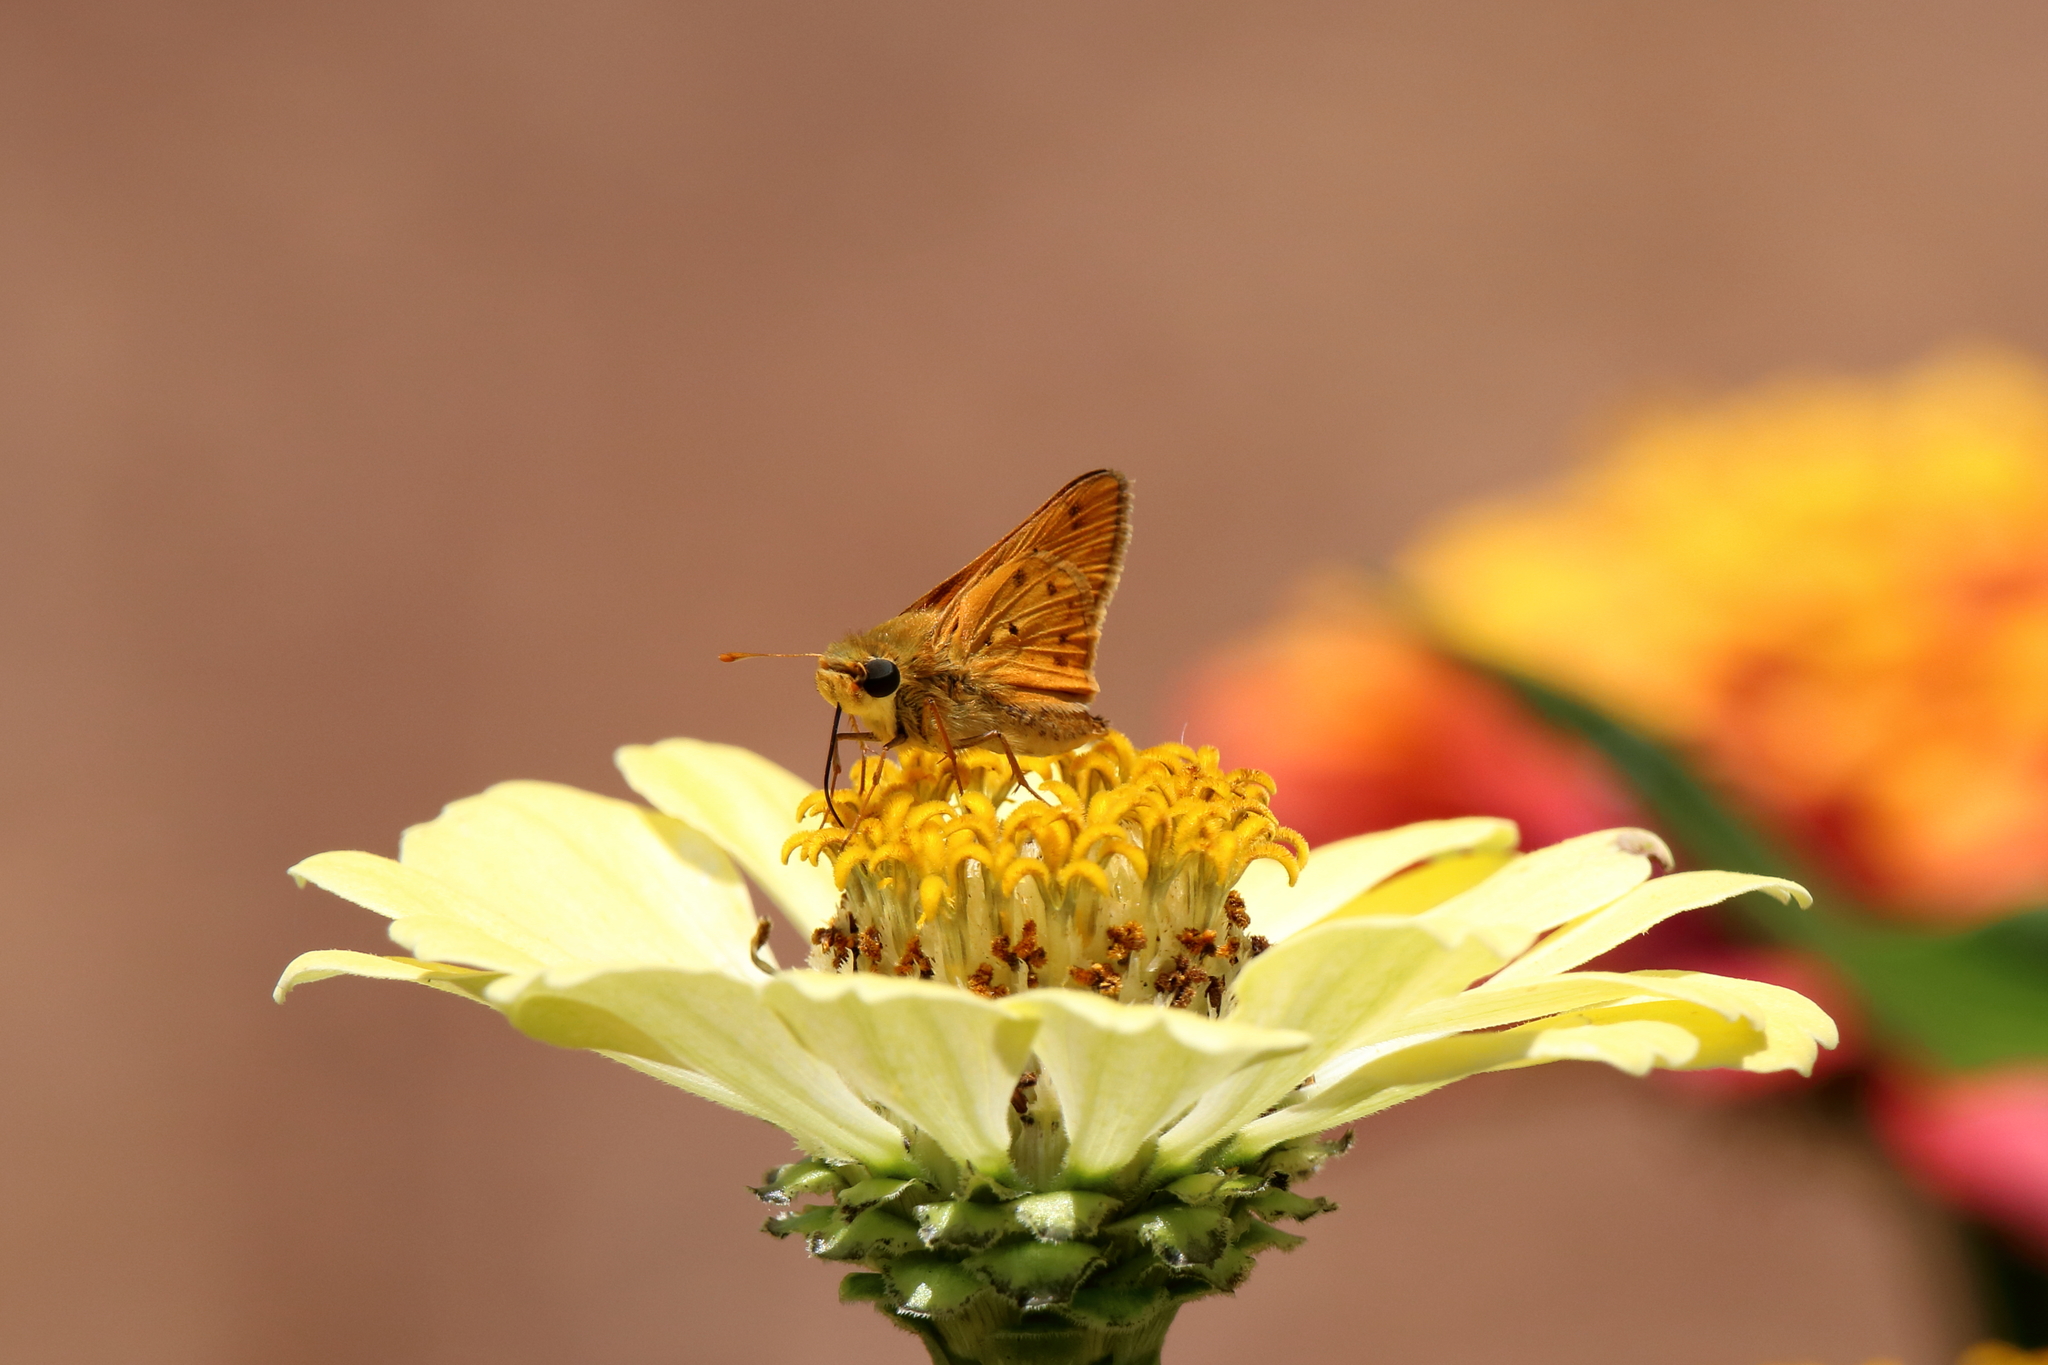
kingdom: Animalia
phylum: Arthropoda
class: Insecta
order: Lepidoptera
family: Hesperiidae
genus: Hylephila
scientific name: Hylephila phyleus
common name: Fiery skipper
